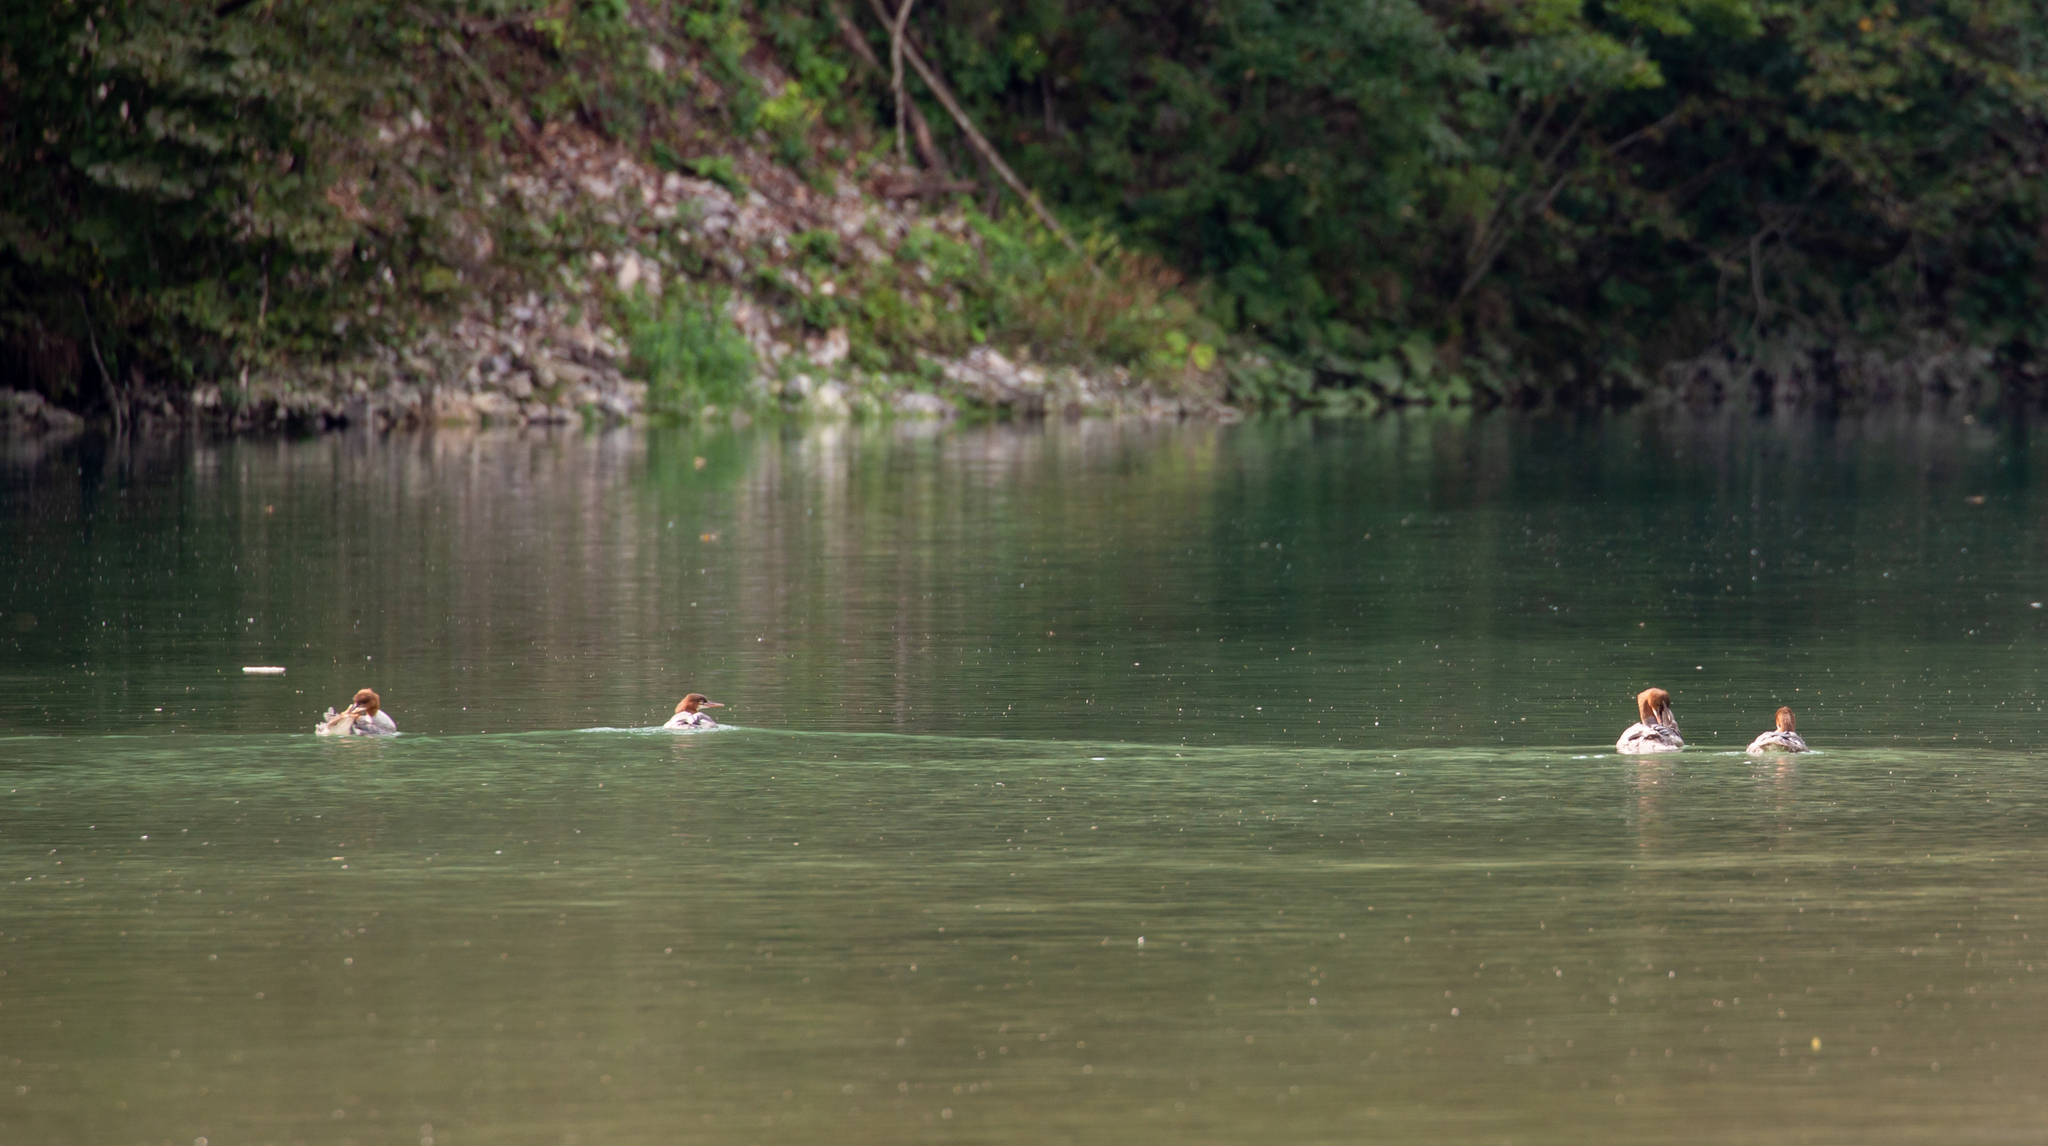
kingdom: Animalia
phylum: Chordata
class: Aves
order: Anseriformes
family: Anatidae
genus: Mergus
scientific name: Mergus merganser
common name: Common merganser
